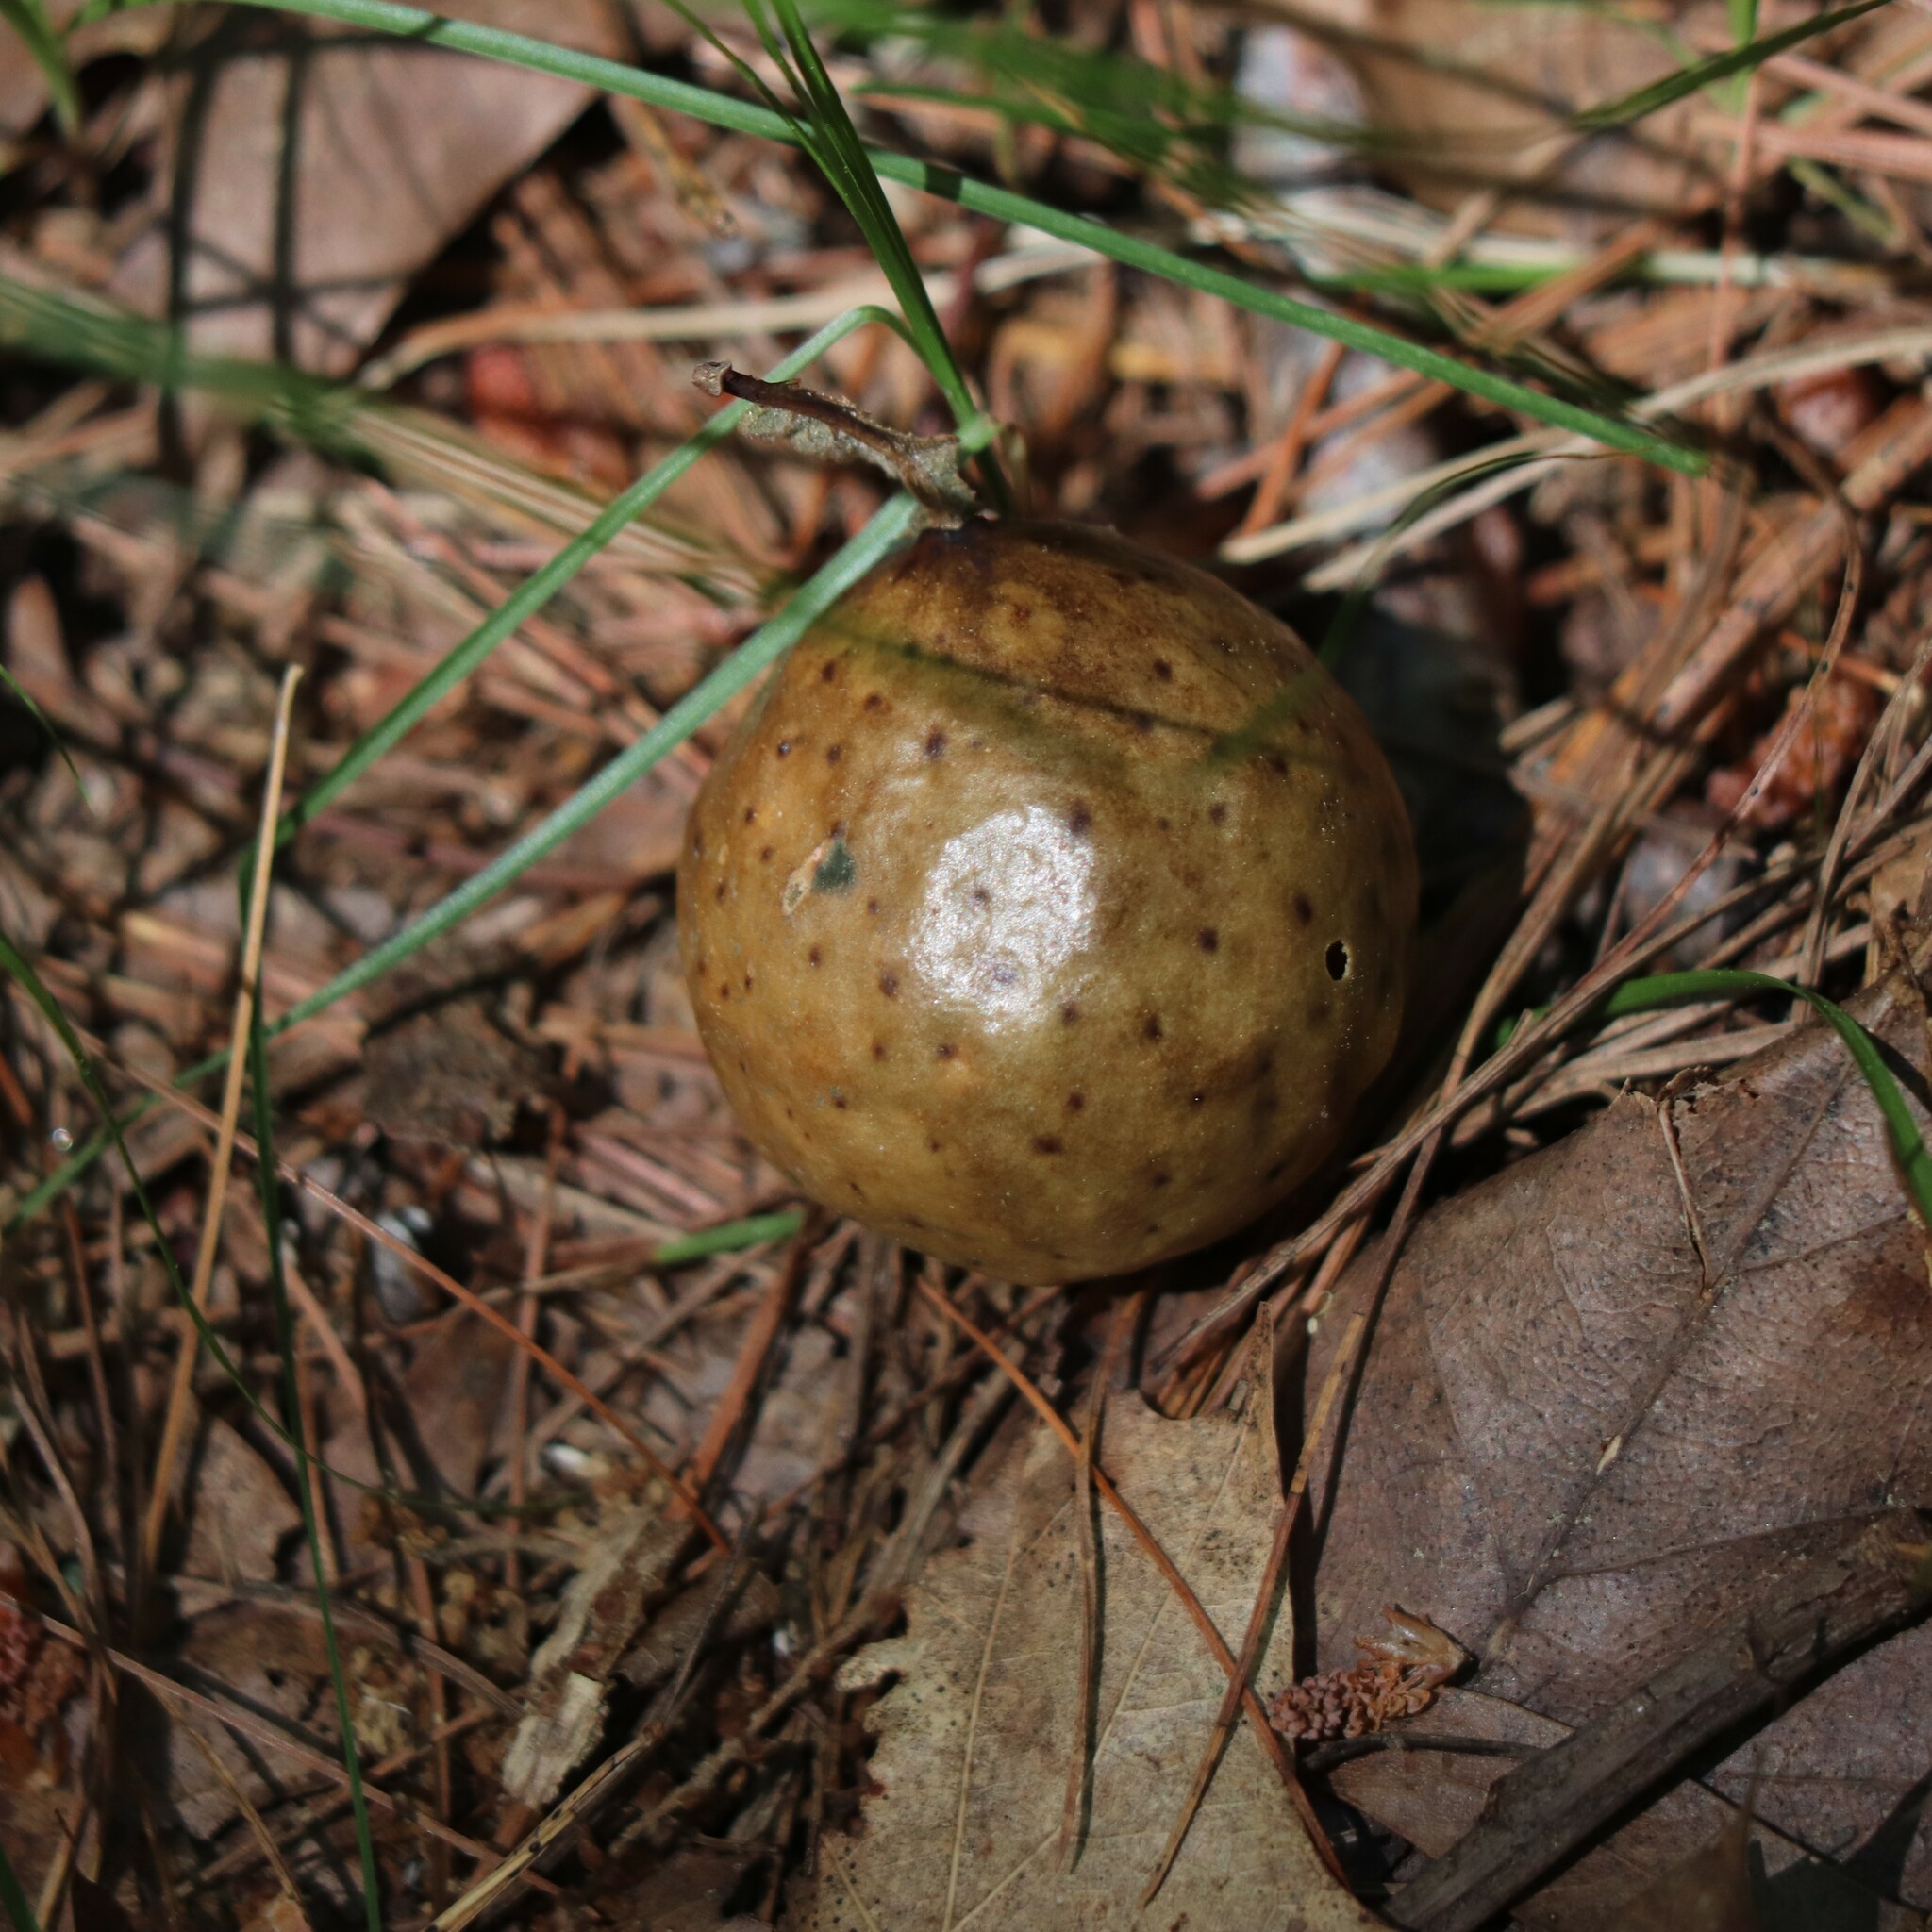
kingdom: Animalia
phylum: Arthropoda
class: Insecta
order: Hymenoptera
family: Cynipidae
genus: Amphibolips
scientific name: Amphibolips
